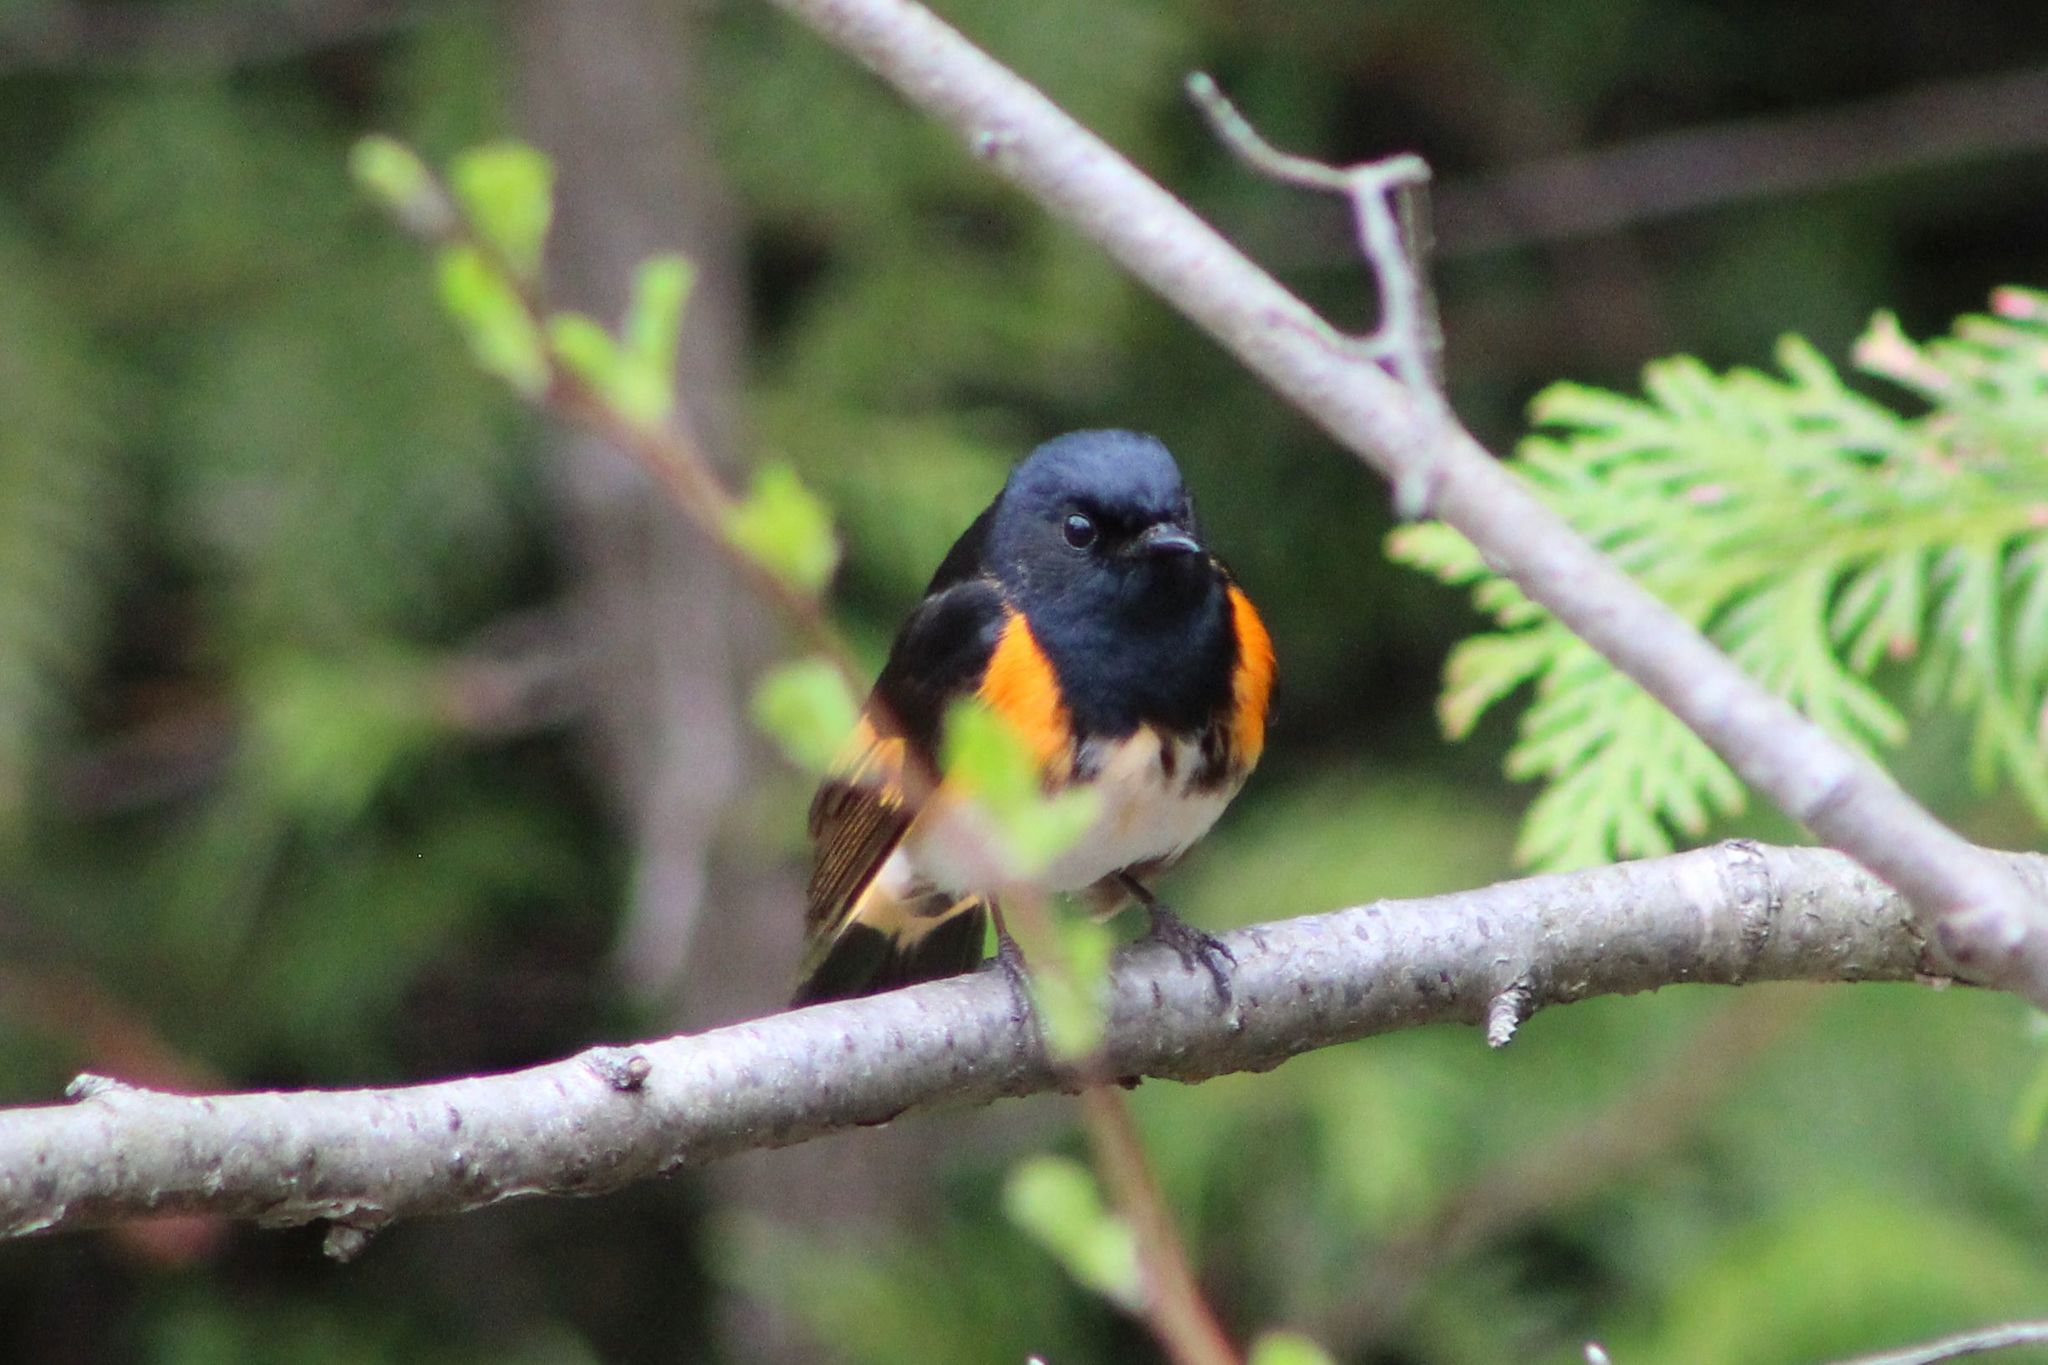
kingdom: Animalia
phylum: Chordata
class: Aves
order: Passeriformes
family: Parulidae
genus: Setophaga
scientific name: Setophaga ruticilla
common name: American redstart
